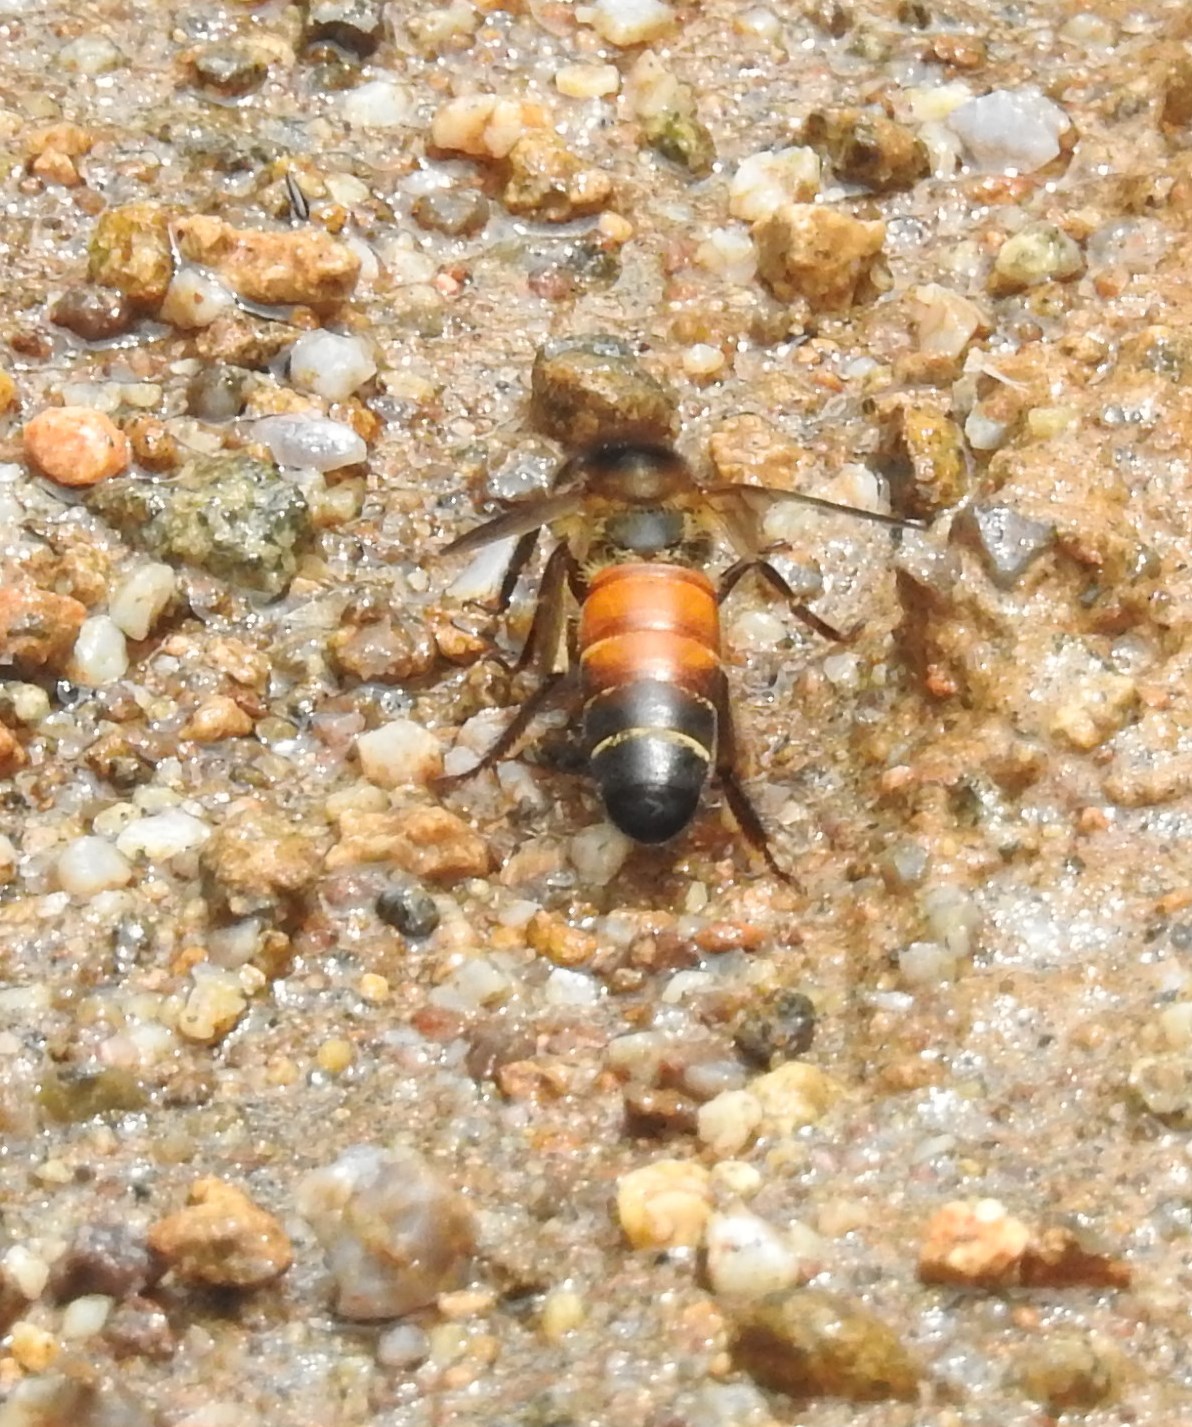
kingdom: Animalia
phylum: Arthropoda
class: Insecta
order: Hymenoptera
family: Apidae
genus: Apis
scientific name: Apis dorsata
